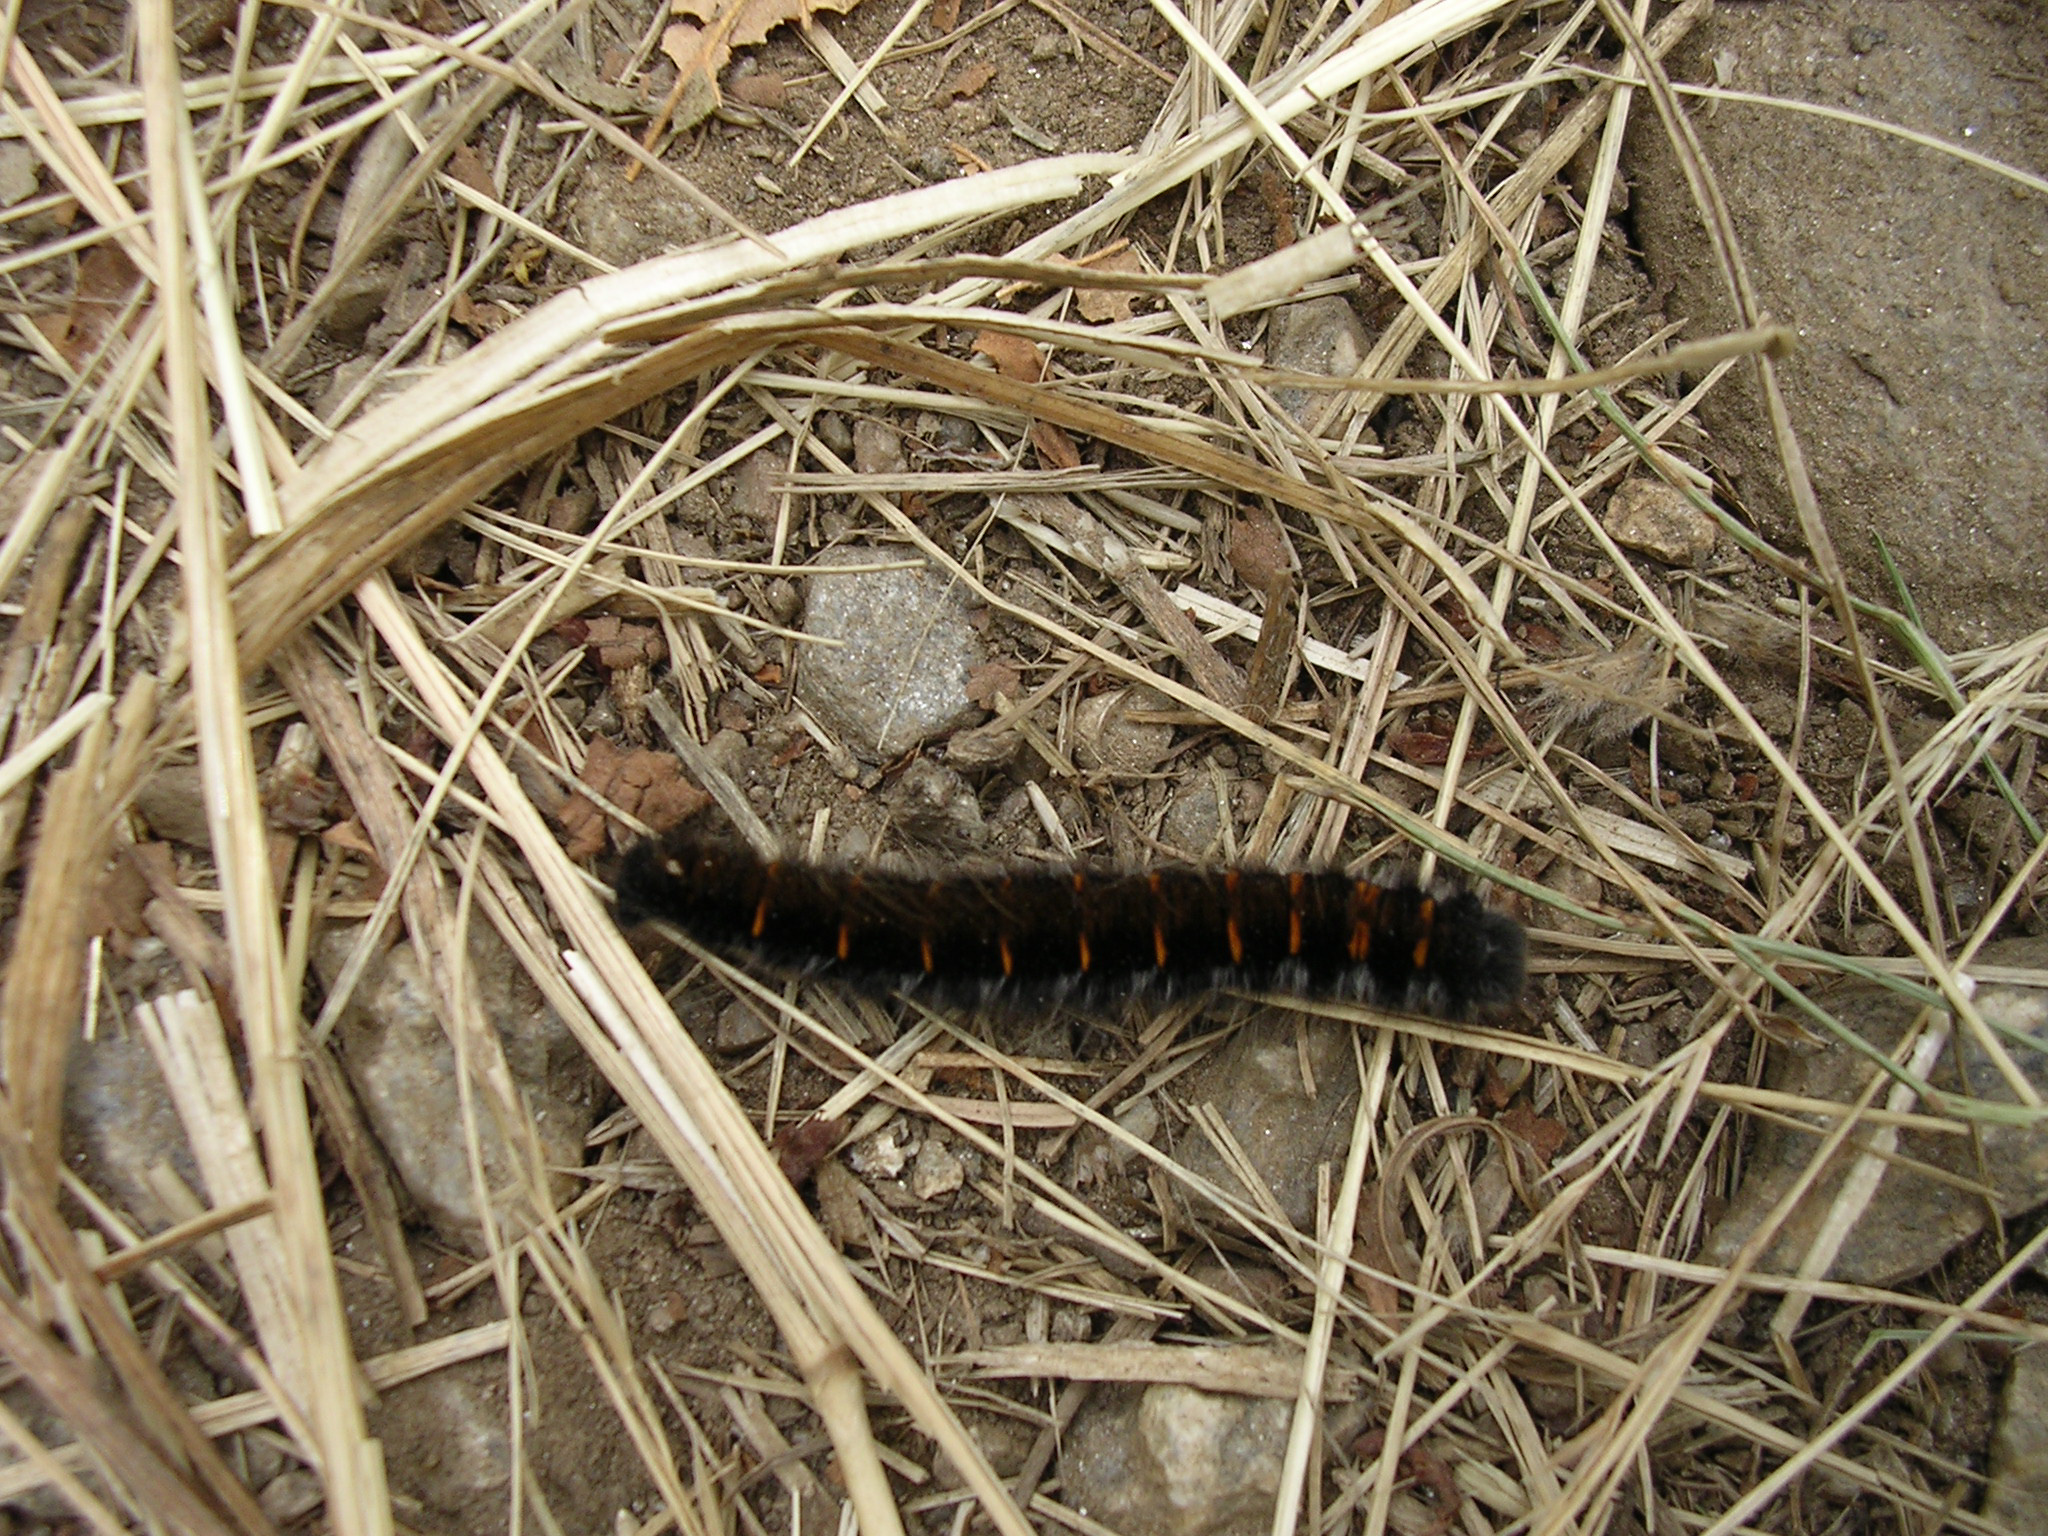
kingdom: Animalia
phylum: Arthropoda
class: Insecta
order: Lepidoptera
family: Lasiocampidae
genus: Macrothylacia
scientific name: Macrothylacia rubi
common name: Fox moth
